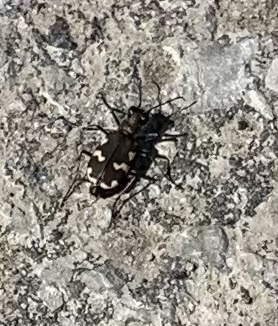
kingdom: Animalia
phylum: Arthropoda
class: Insecta
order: Coleoptera
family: Carabidae
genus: Cicindela
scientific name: Cicindela hybrida
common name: Northern dune tiger beetle
